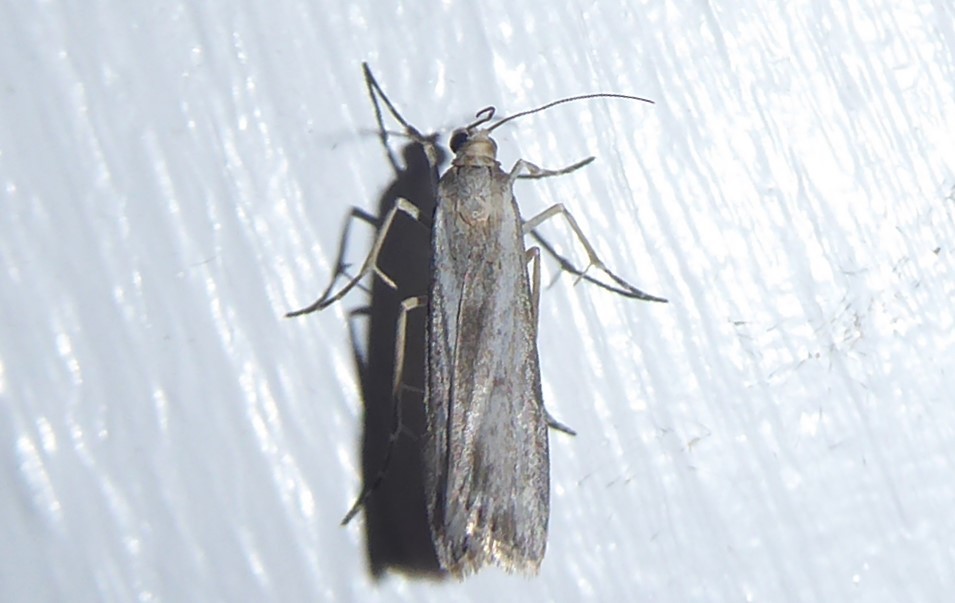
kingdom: Animalia
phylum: Arthropoda
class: Insecta
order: Lepidoptera
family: Crambidae
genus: Eudonia
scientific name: Eudonia leptalea
